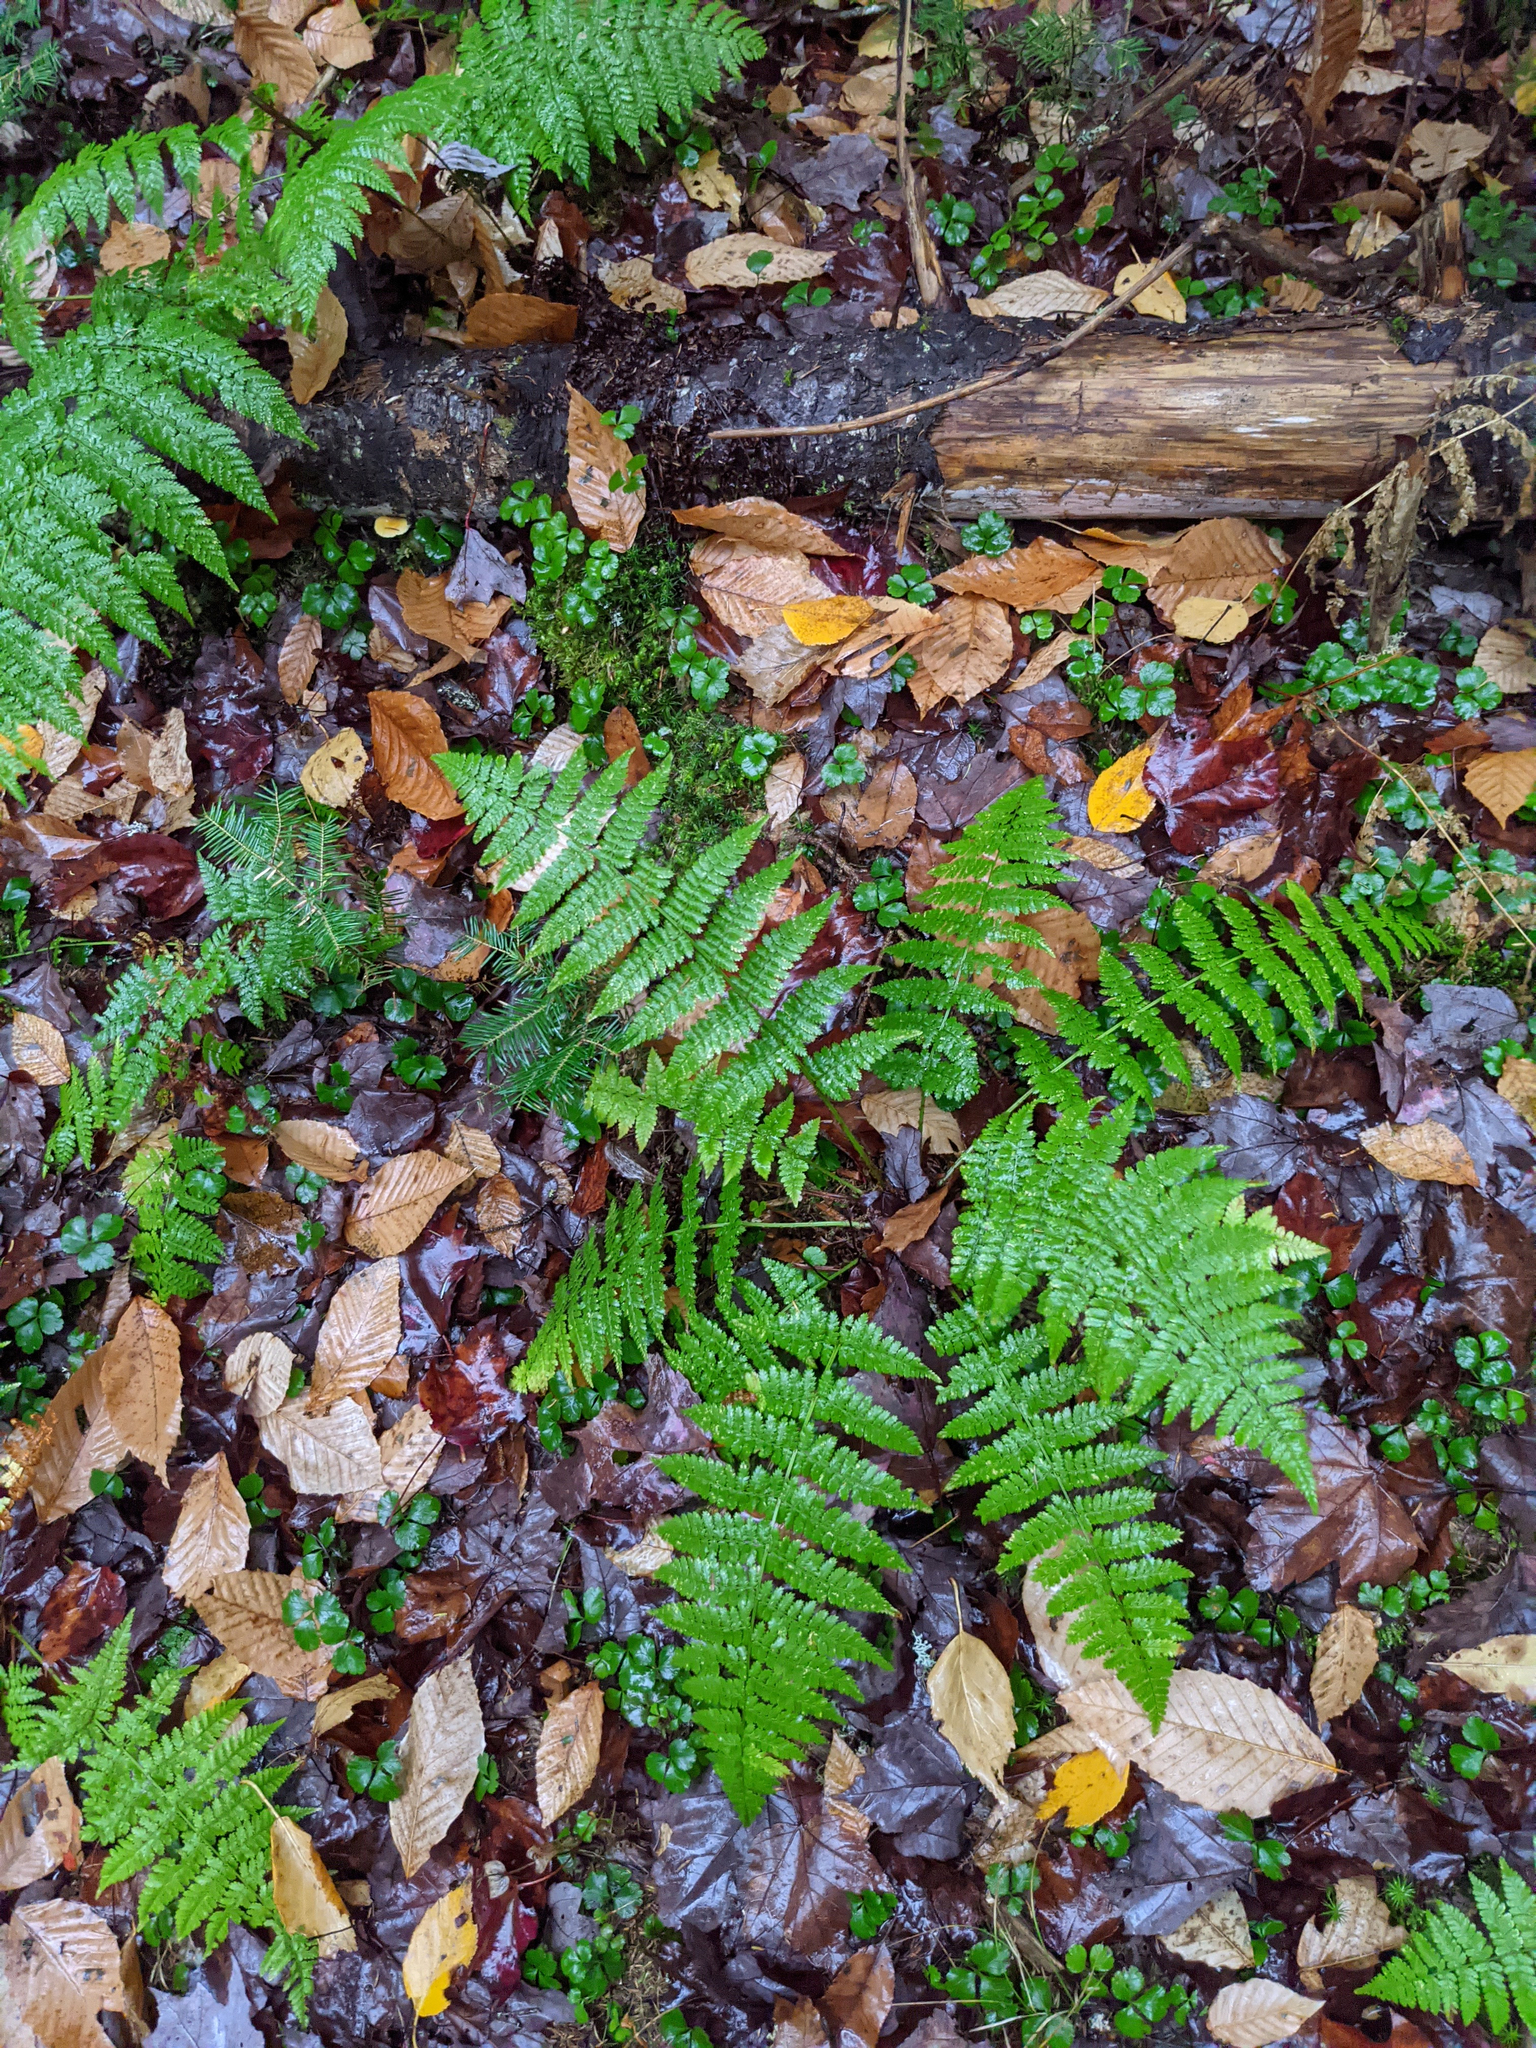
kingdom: Plantae
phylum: Tracheophyta
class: Polypodiopsida
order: Polypodiales
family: Dryopteridaceae
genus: Dryopteris
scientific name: Dryopteris intermedia
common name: Evergreen wood fern
